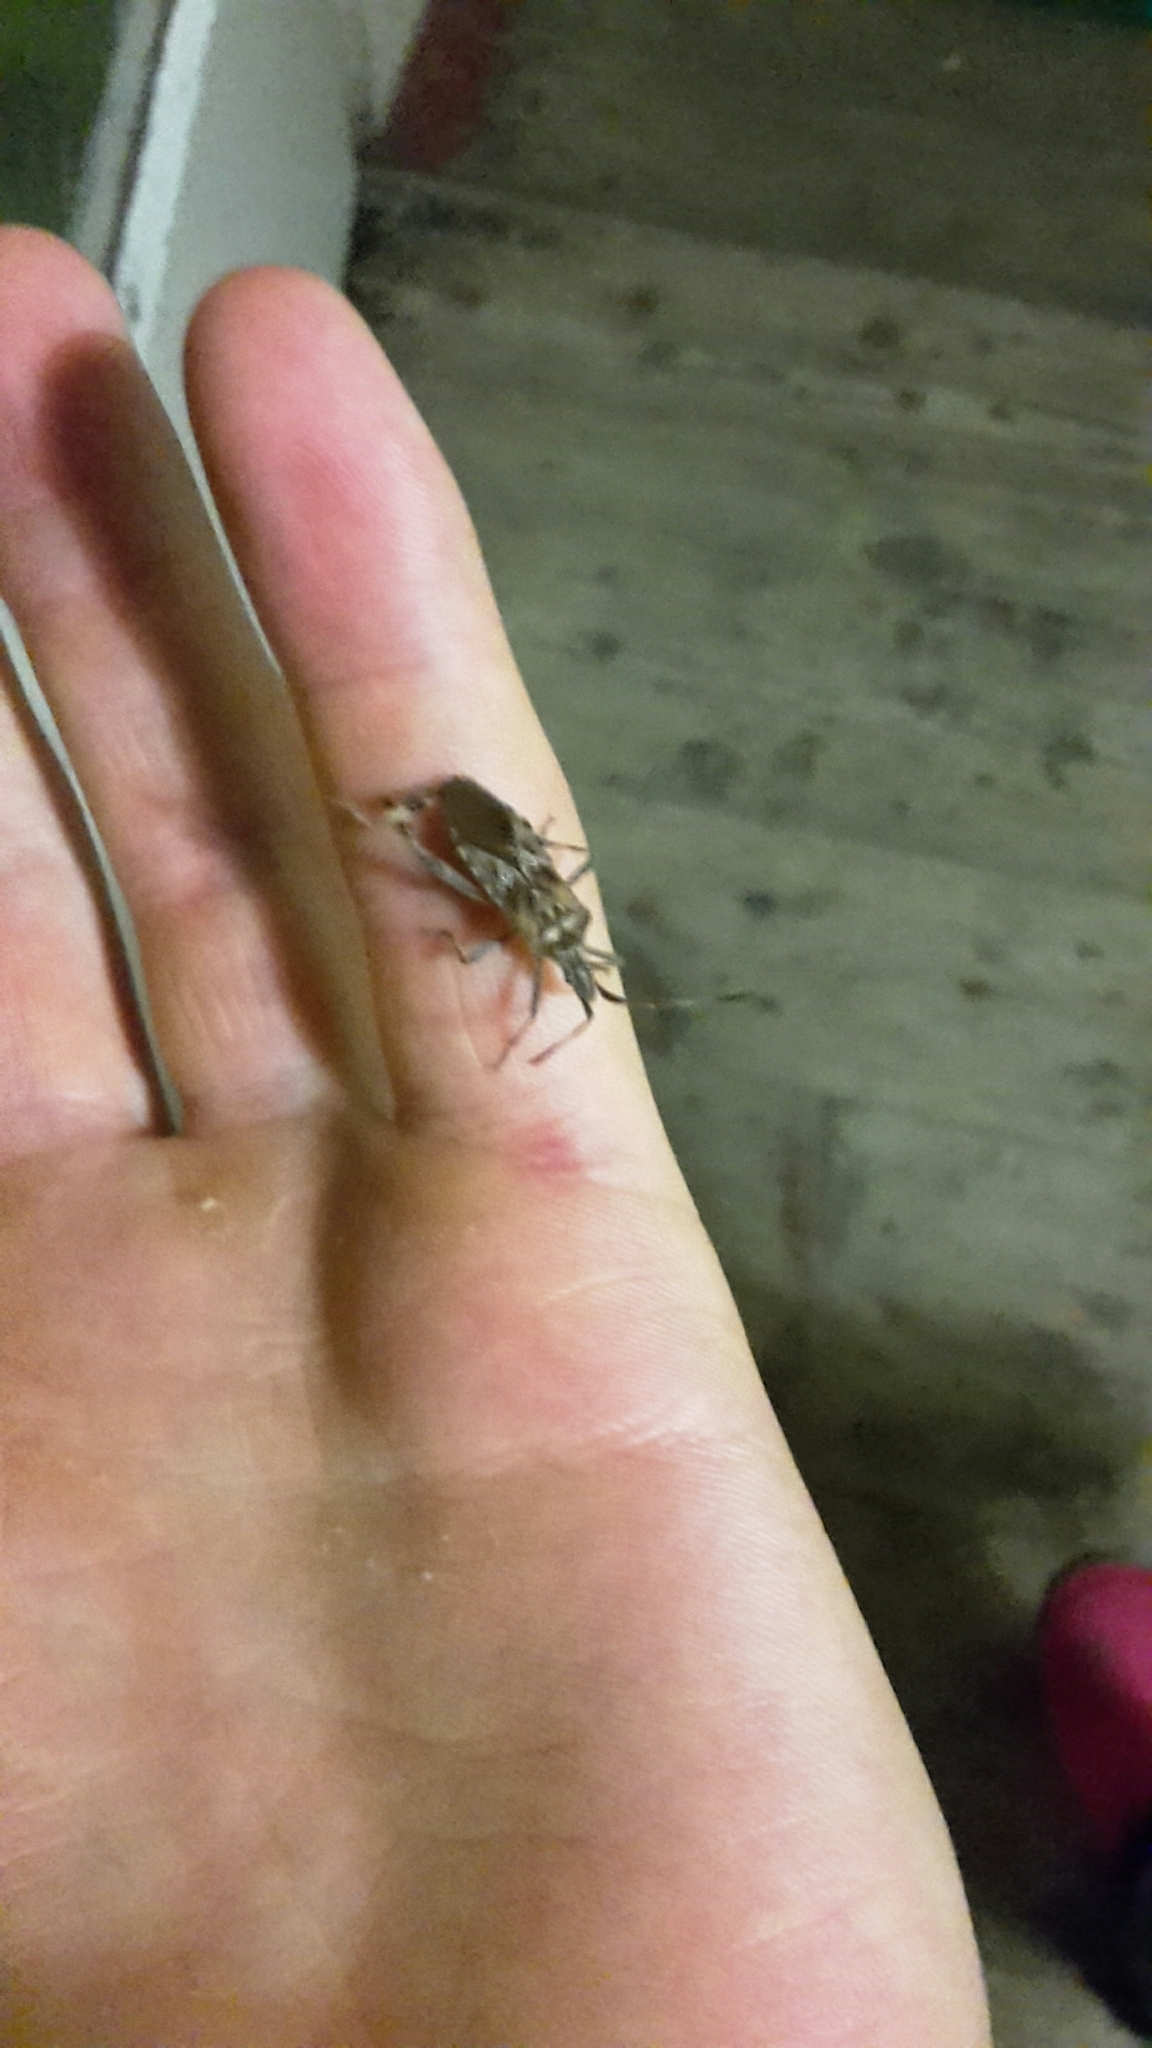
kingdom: Animalia
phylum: Arthropoda
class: Insecta
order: Hemiptera
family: Coreidae
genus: Leptoglossus
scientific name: Leptoglossus occidentalis
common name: Western conifer-seed bug
